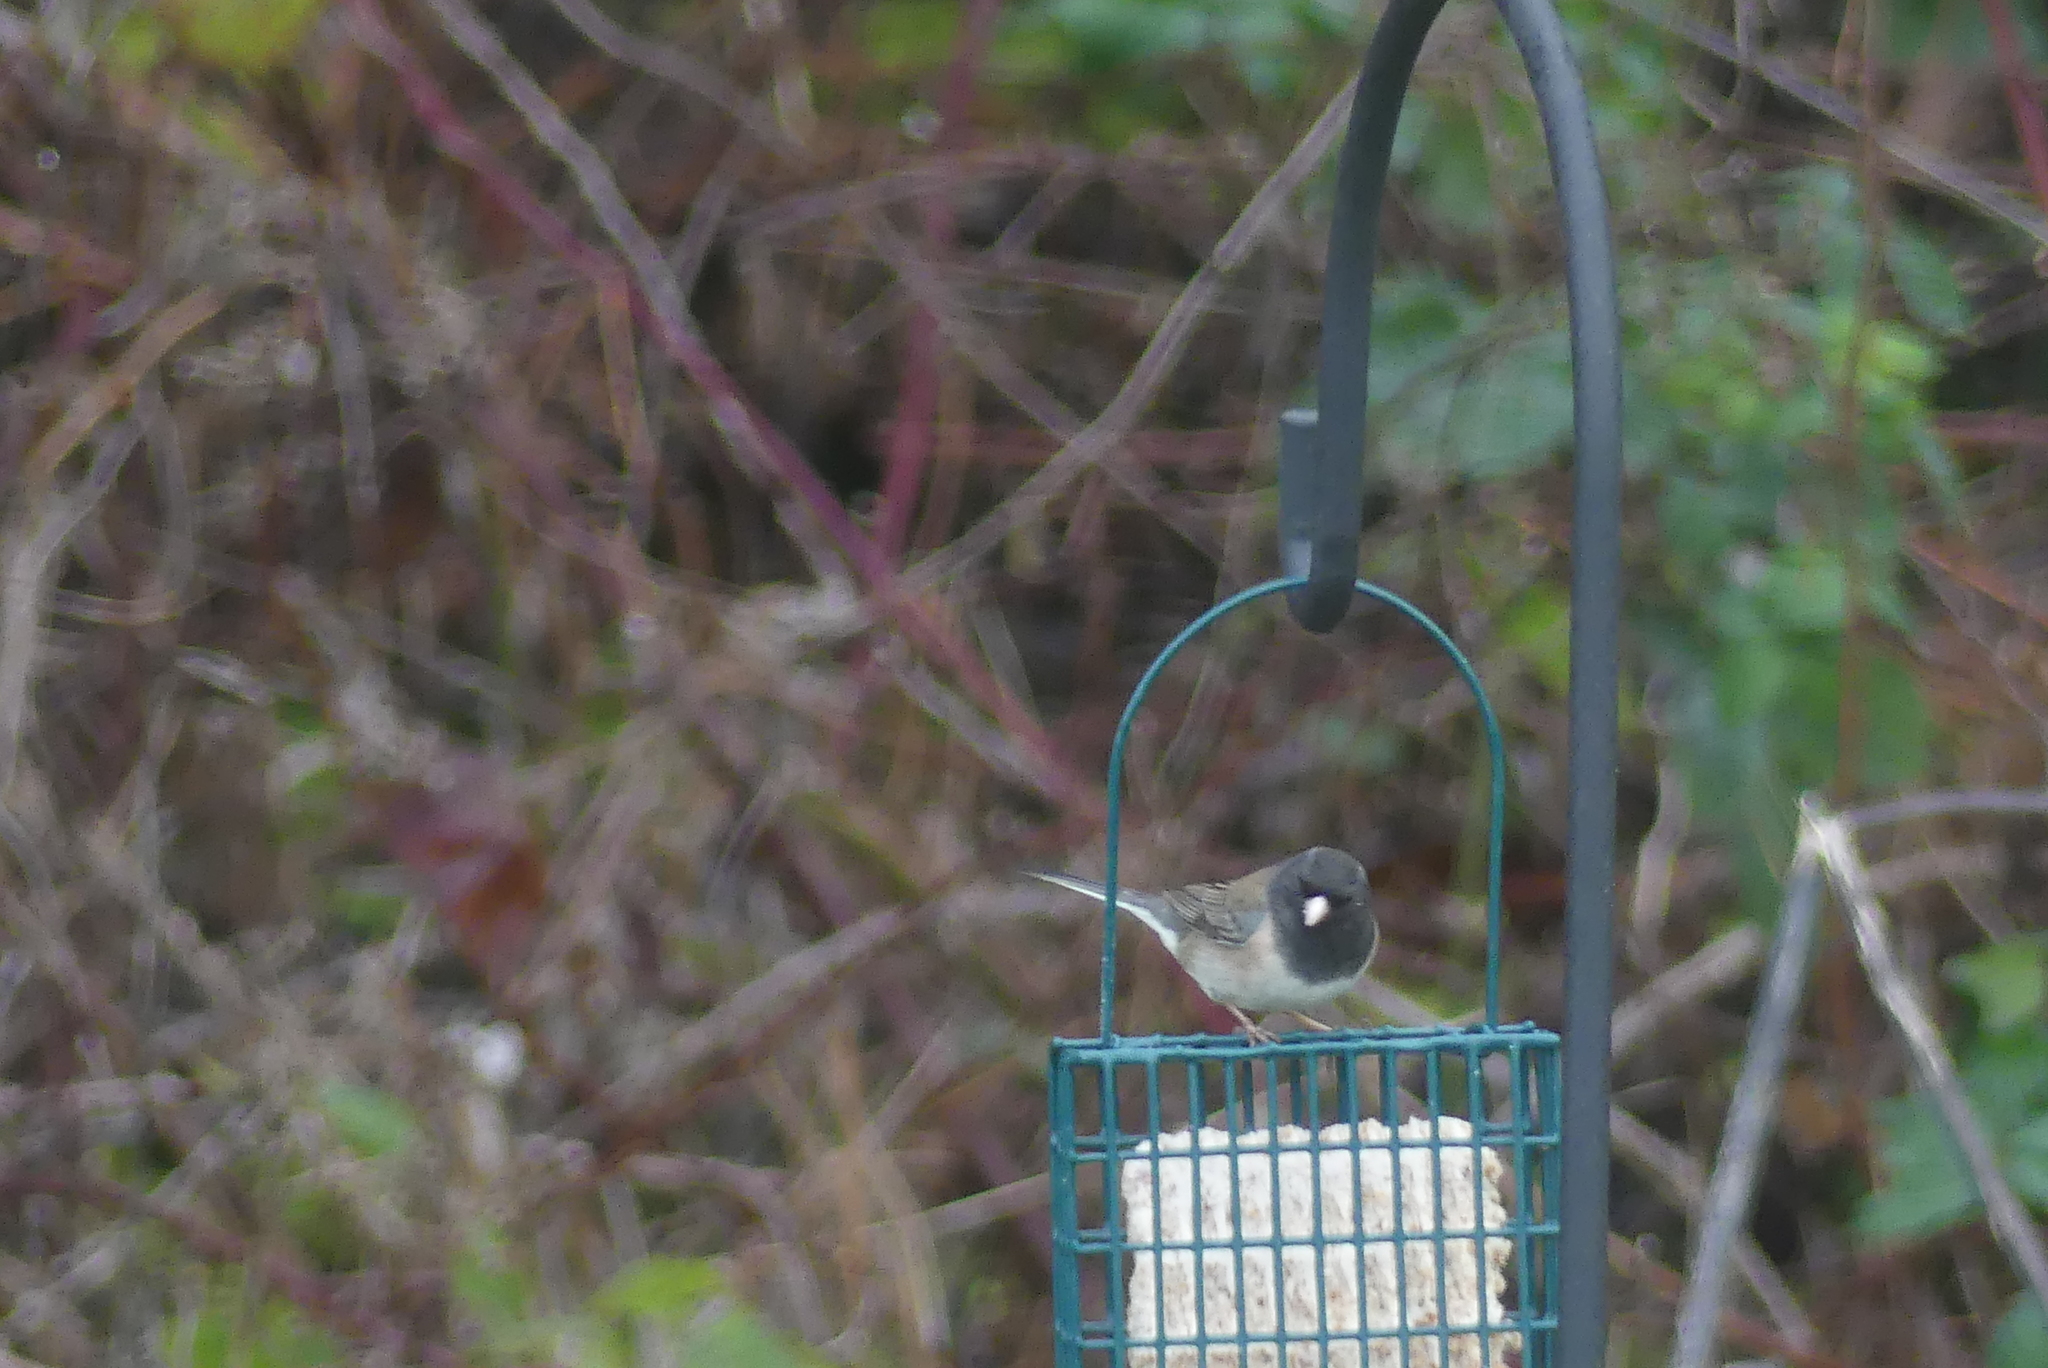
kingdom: Animalia
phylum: Chordata
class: Aves
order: Passeriformes
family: Passerellidae
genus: Junco
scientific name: Junco hyemalis
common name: Dark-eyed junco
